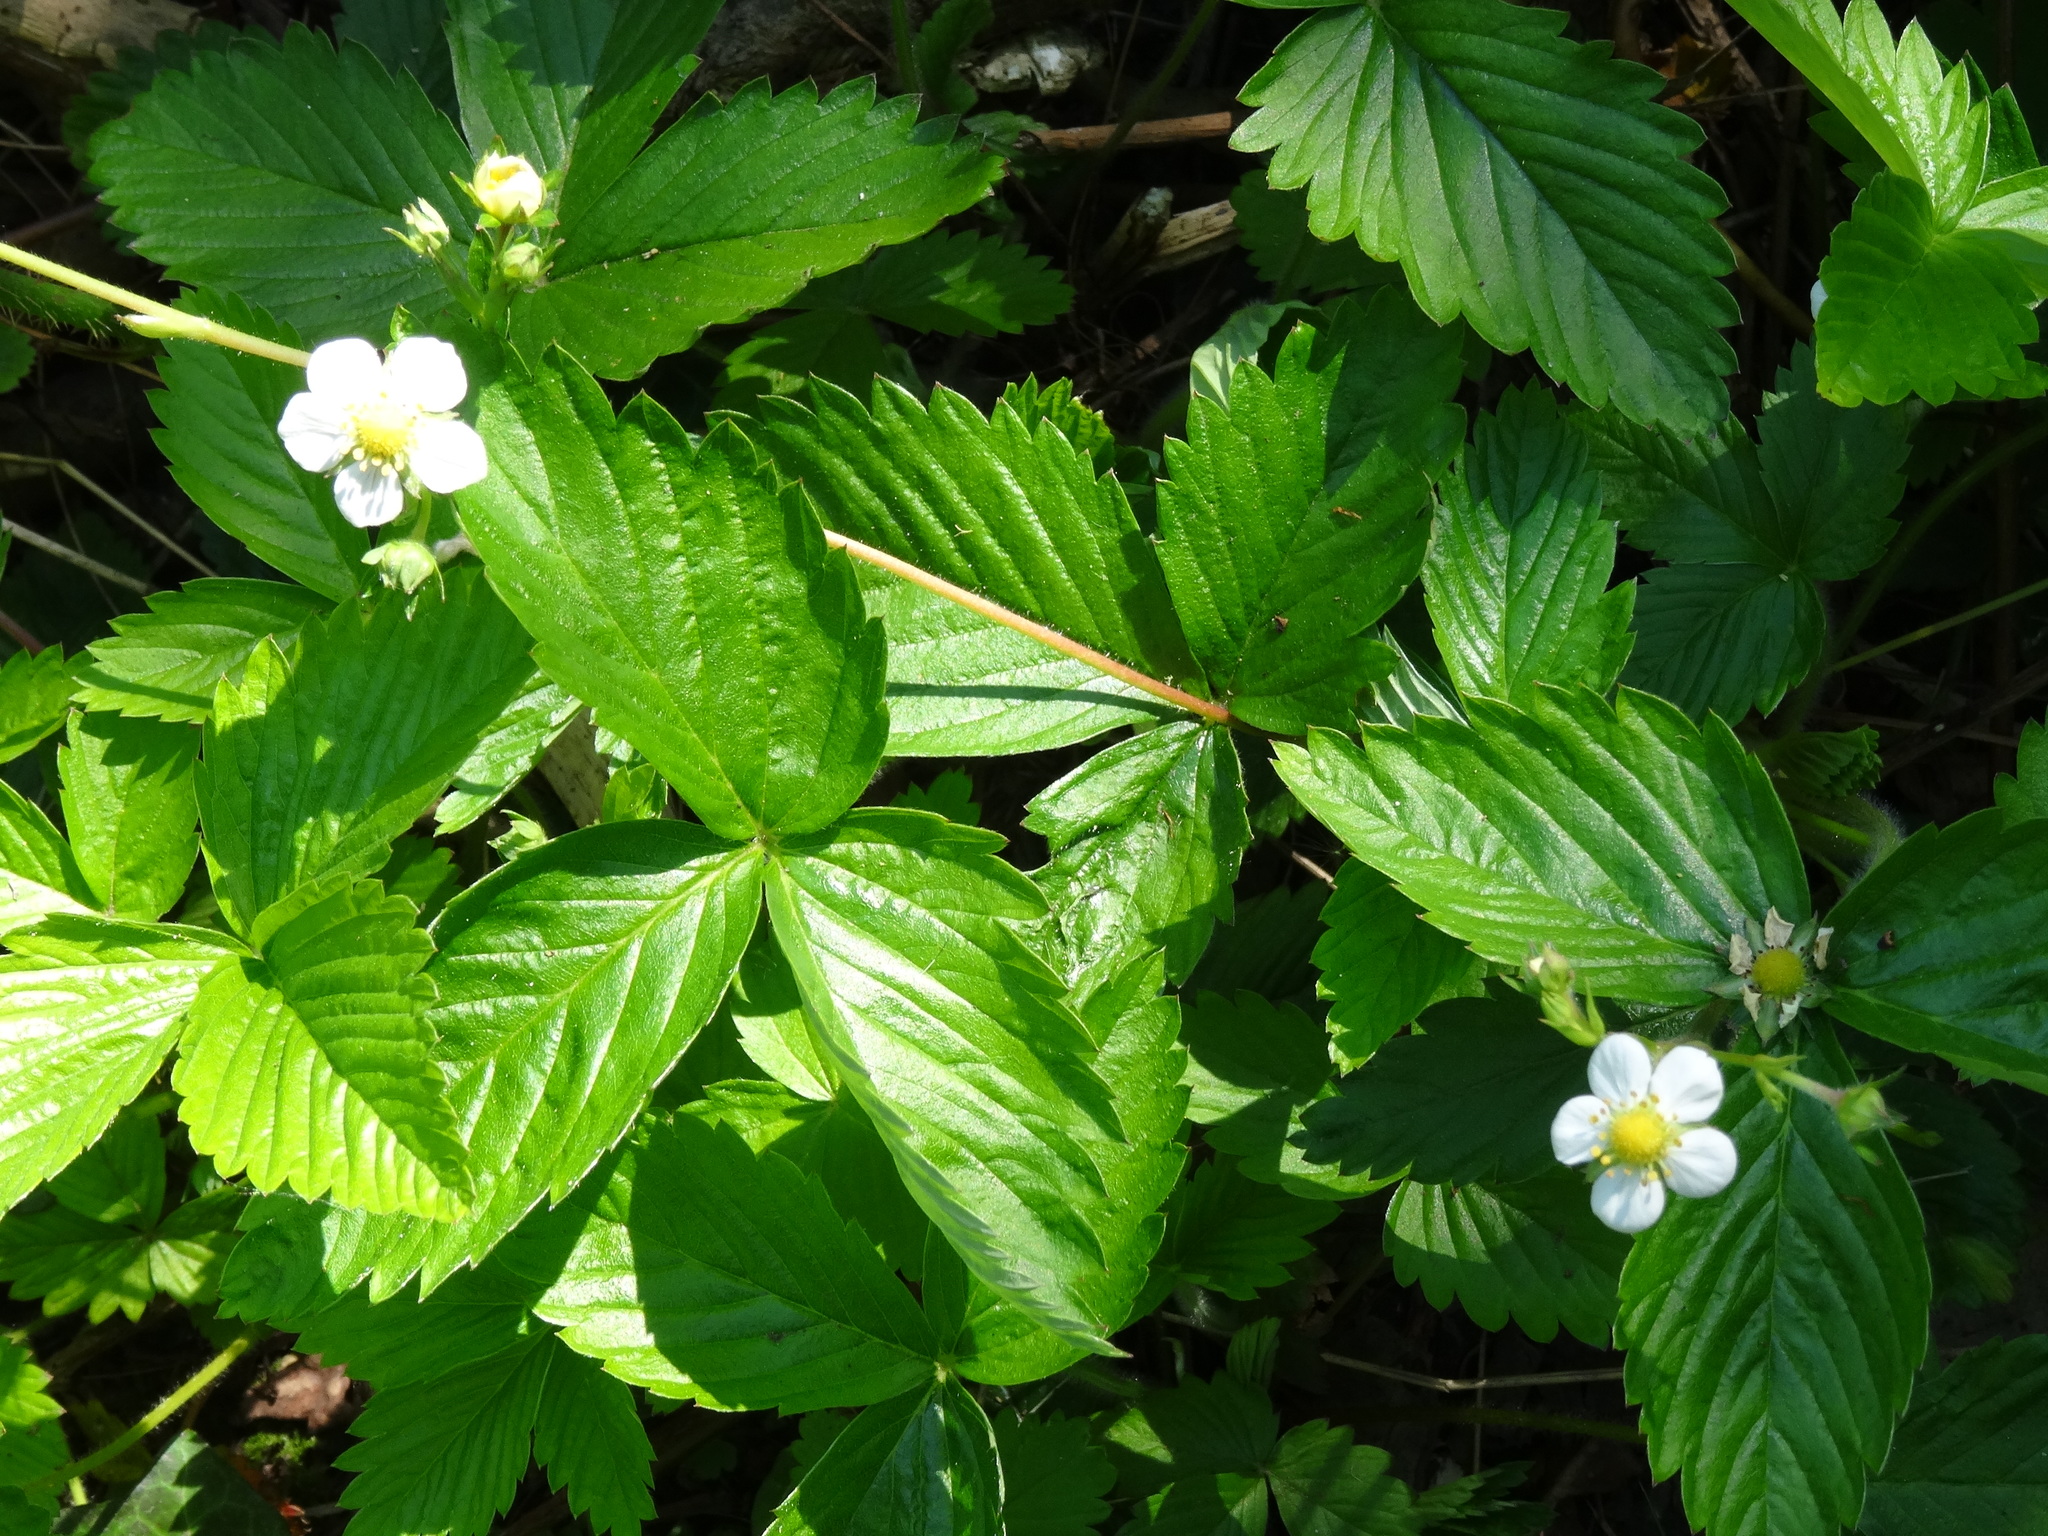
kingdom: Plantae
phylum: Tracheophyta
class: Magnoliopsida
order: Rosales
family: Rosaceae
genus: Fragaria
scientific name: Fragaria ananassa
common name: Garden strawberry
